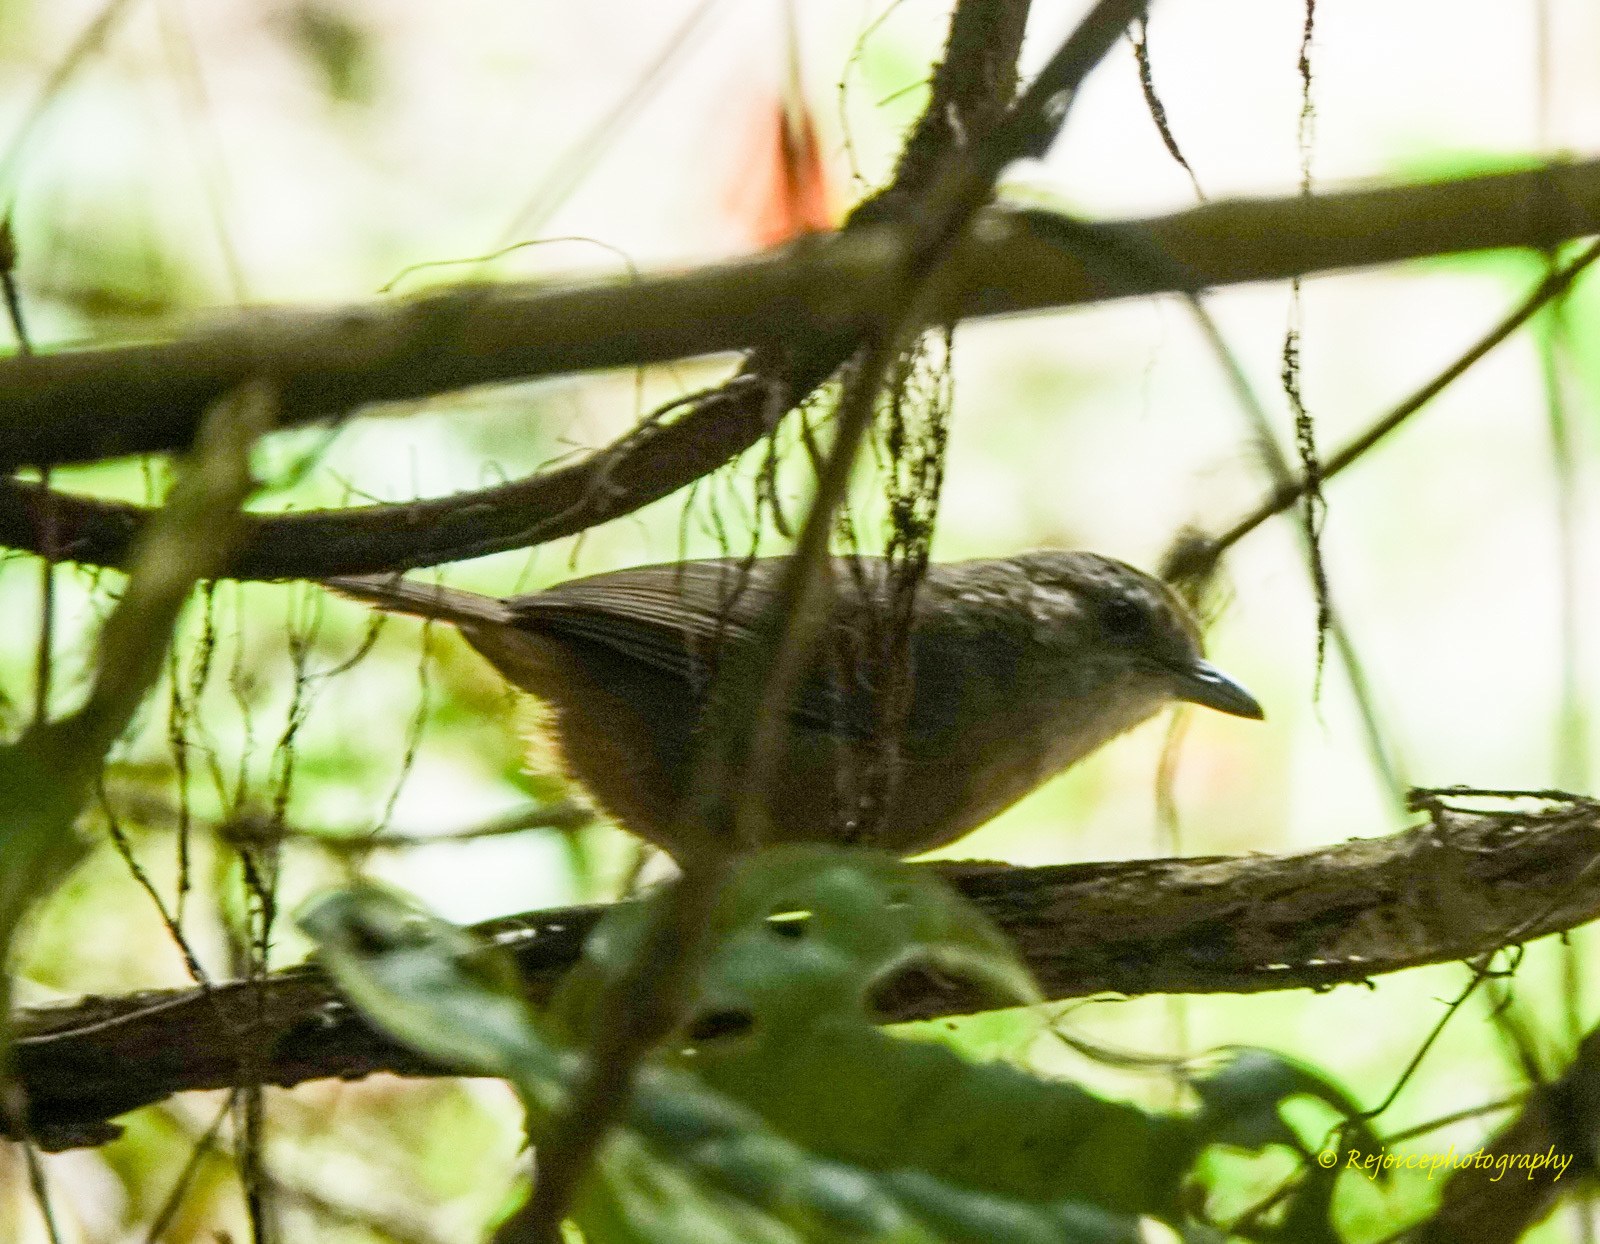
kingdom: Animalia
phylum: Chordata
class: Aves
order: Passeriformes
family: Pellorneidae
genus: Malacocincla
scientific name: Malacocincla abbotti
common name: Abbott's babbler
